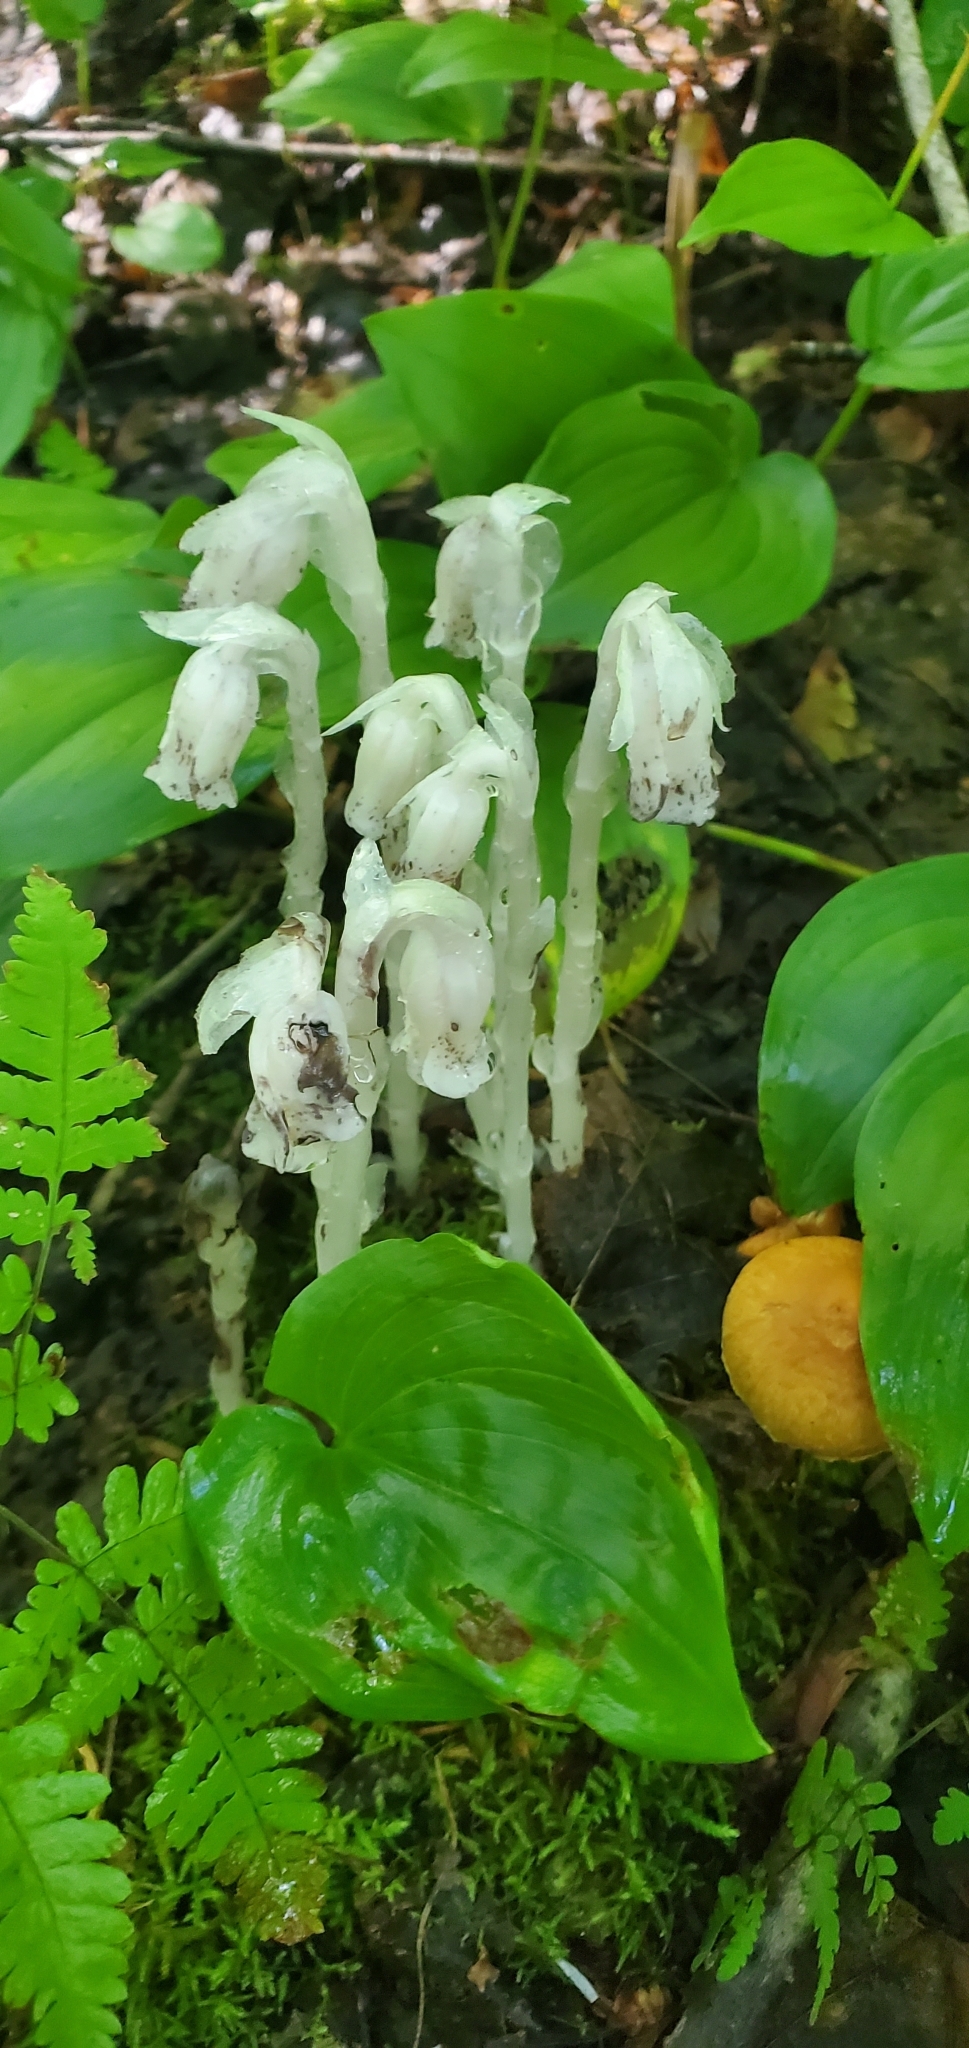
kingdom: Plantae
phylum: Tracheophyta
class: Magnoliopsida
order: Ericales
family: Ericaceae
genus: Monotropa
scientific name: Monotropa uniflora
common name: Convulsion root
